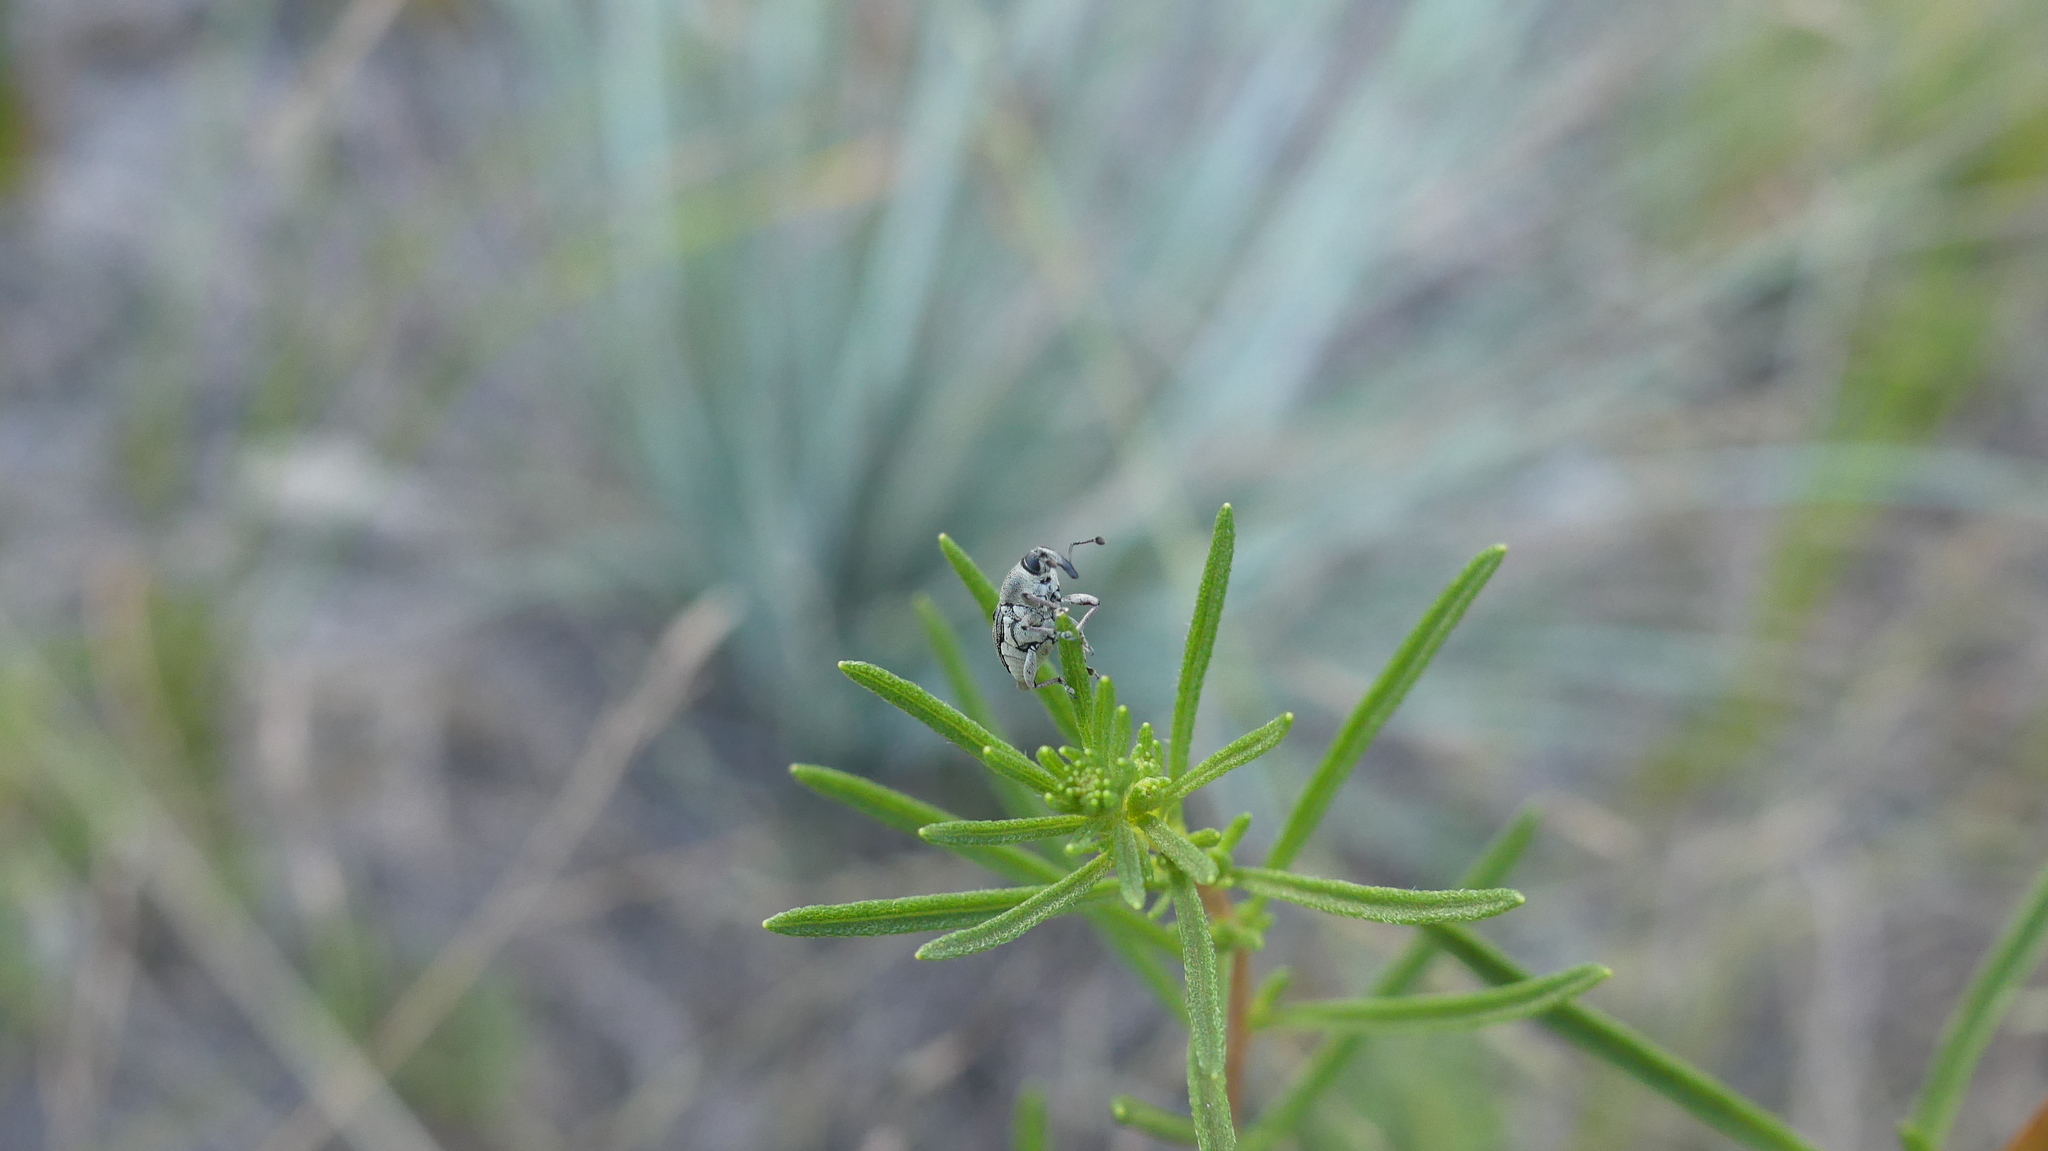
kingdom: Animalia
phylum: Arthropoda
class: Insecta
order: Coleoptera
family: Curculionidae
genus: Odontocorynus
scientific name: Odontocorynus larvatus
